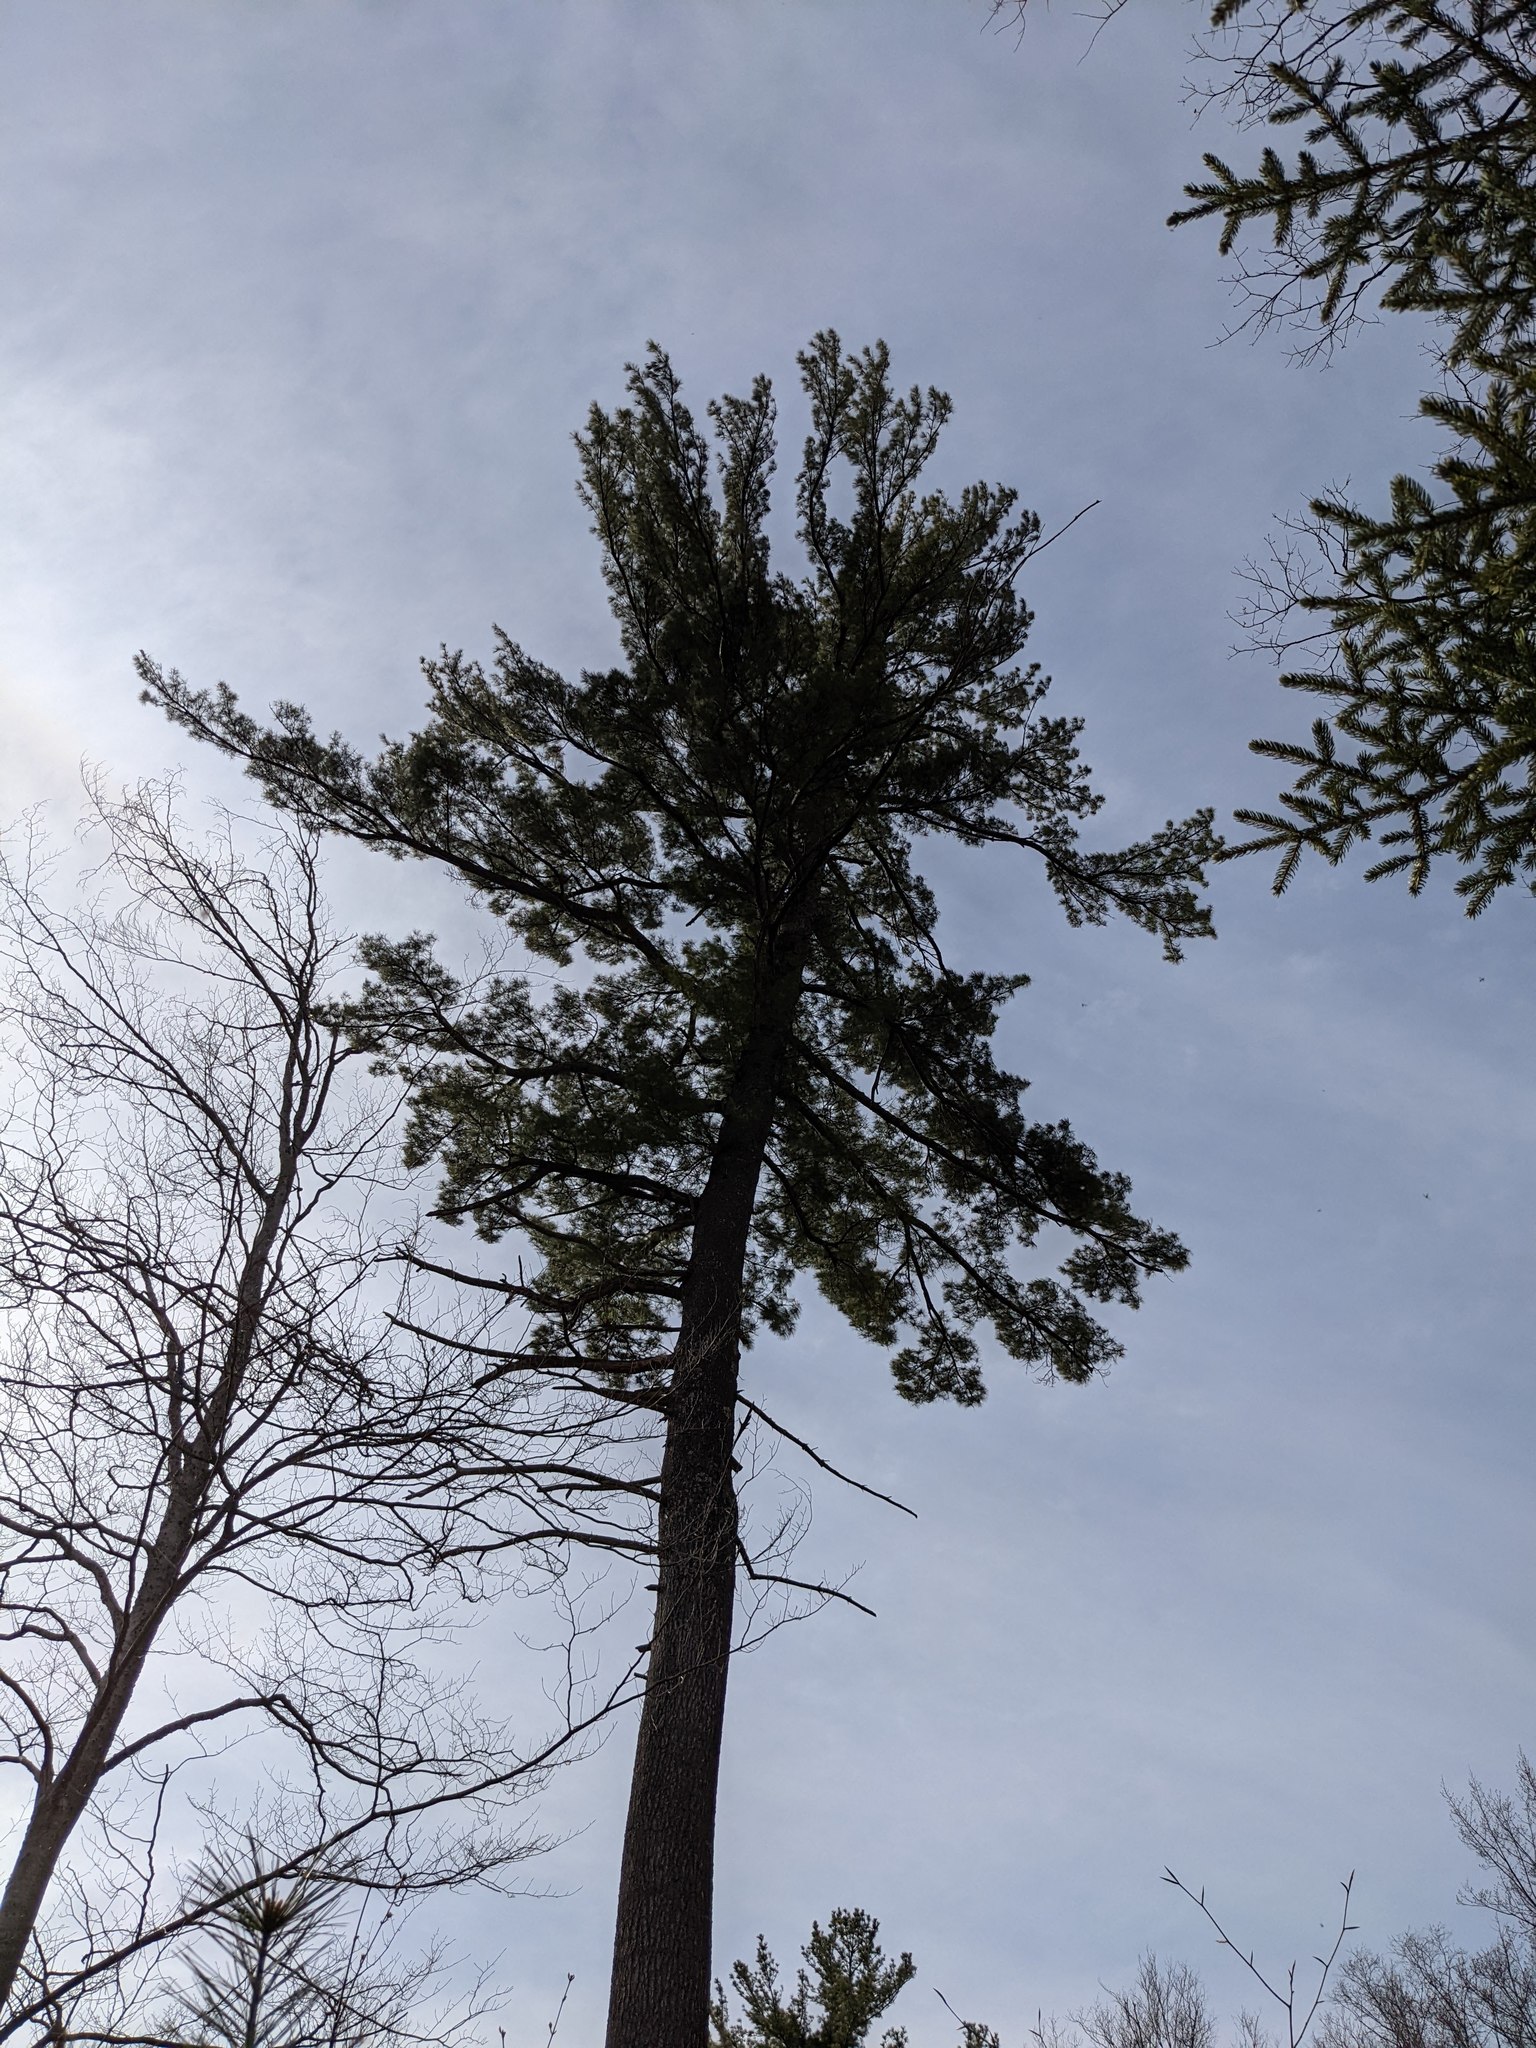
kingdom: Plantae
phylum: Tracheophyta
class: Pinopsida
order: Pinales
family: Pinaceae
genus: Pinus
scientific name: Pinus strobus
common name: Weymouth pine
